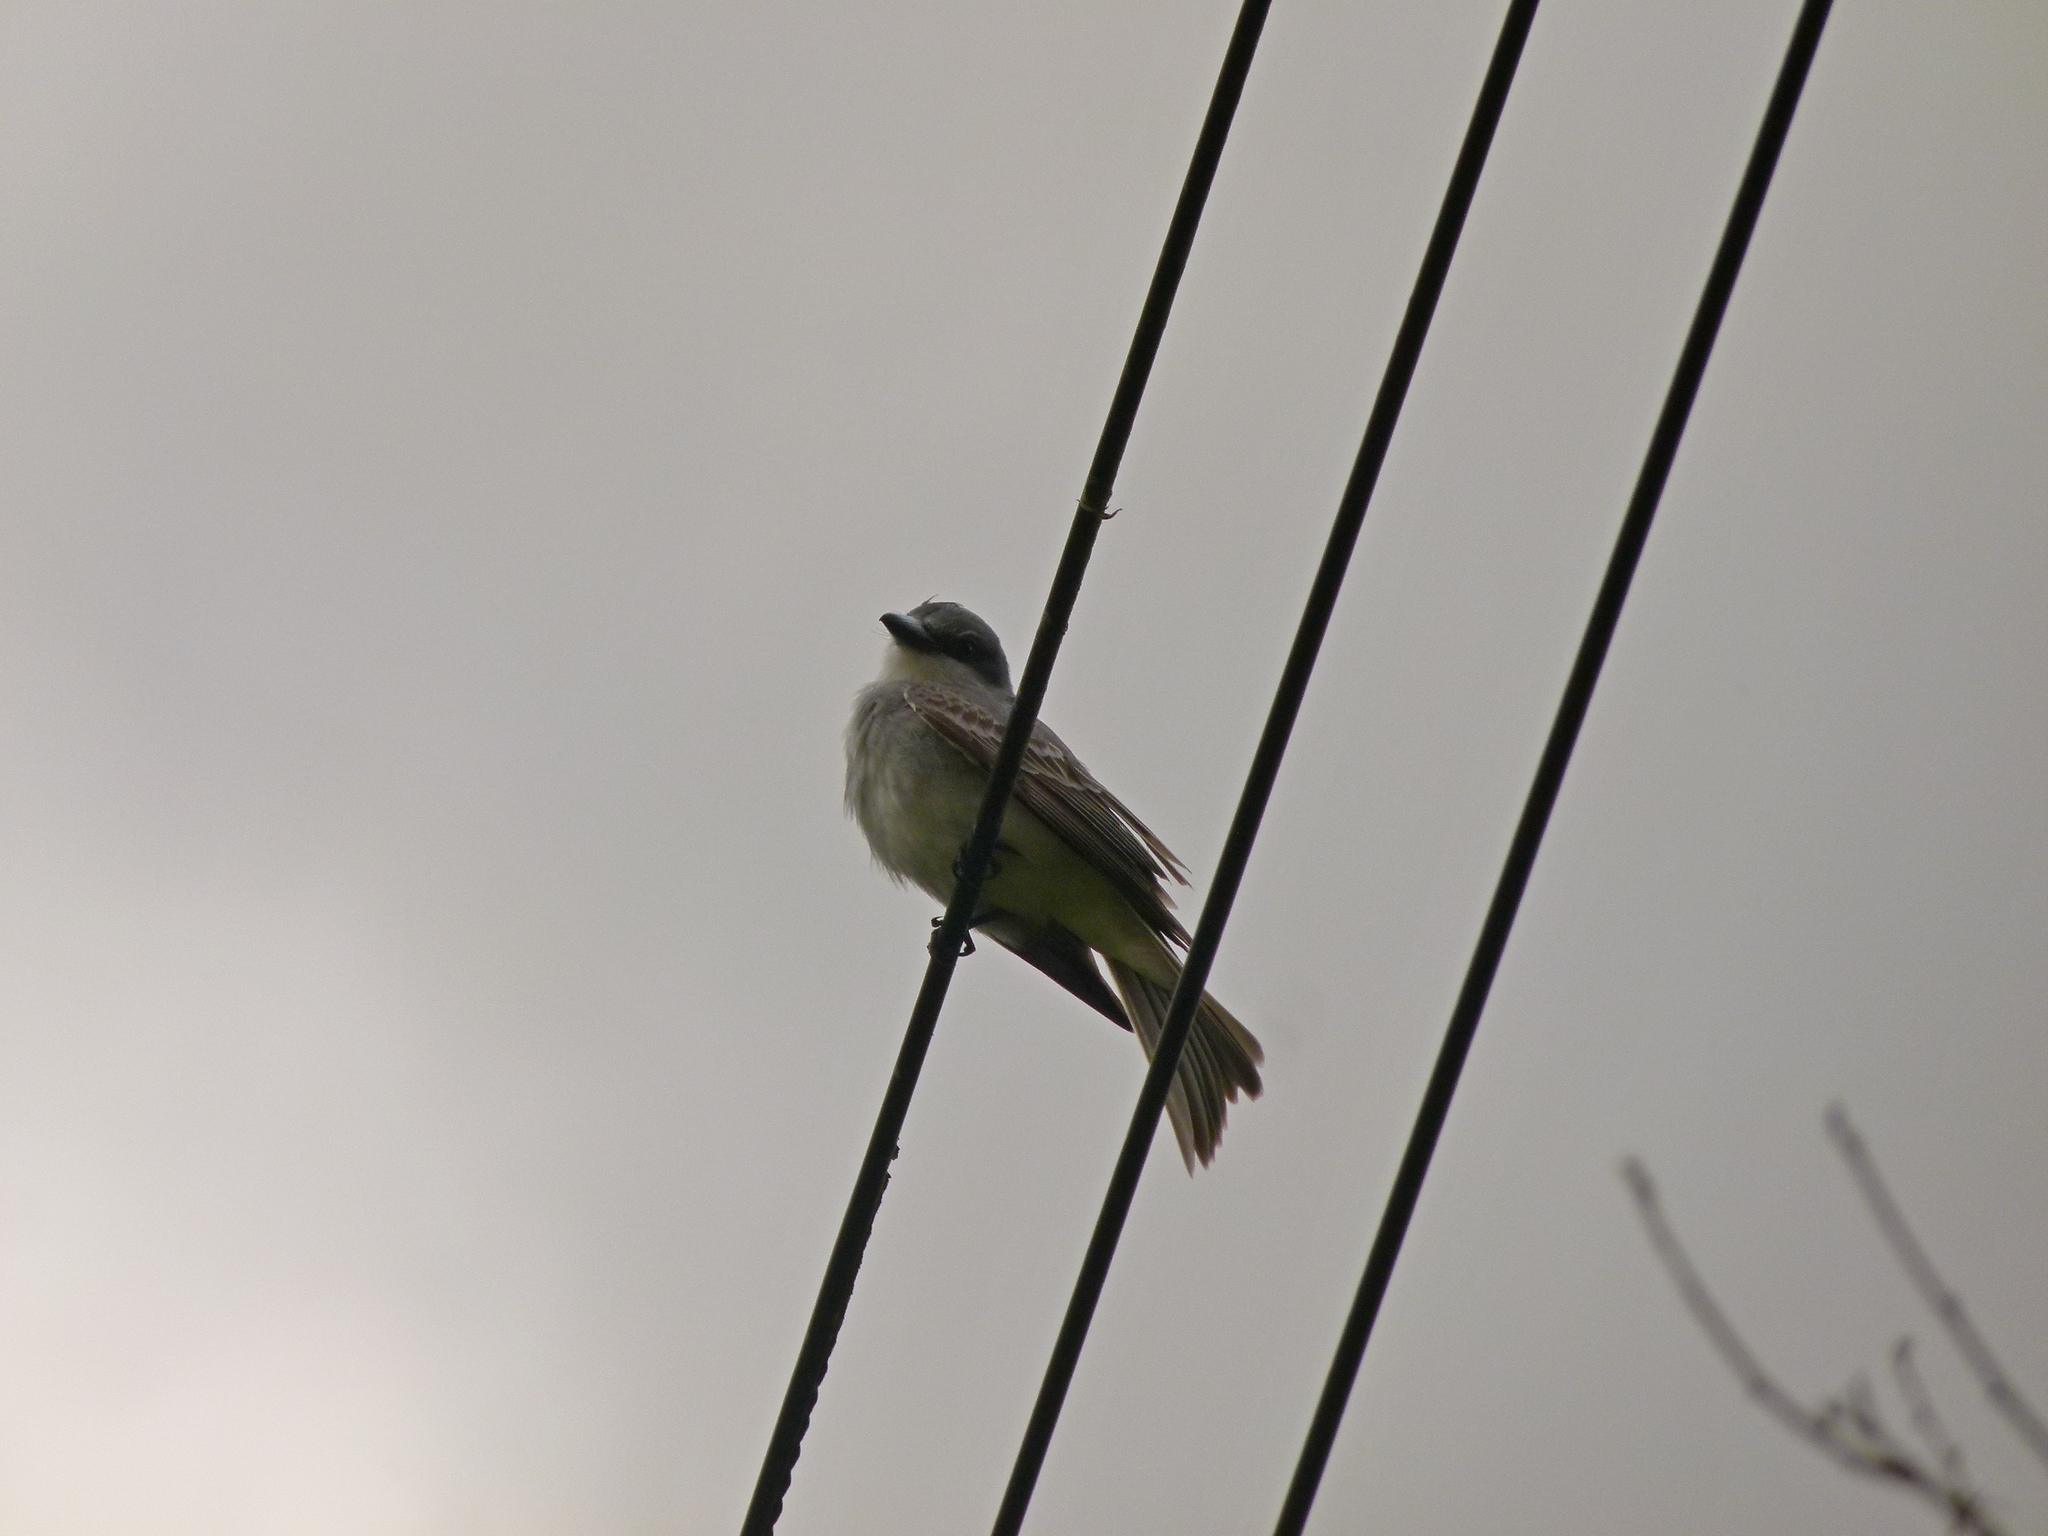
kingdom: Animalia
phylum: Chordata
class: Aves
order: Passeriformes
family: Tyrannidae
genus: Tyrannus
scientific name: Tyrannus dominicensis
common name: Gray kingbird
